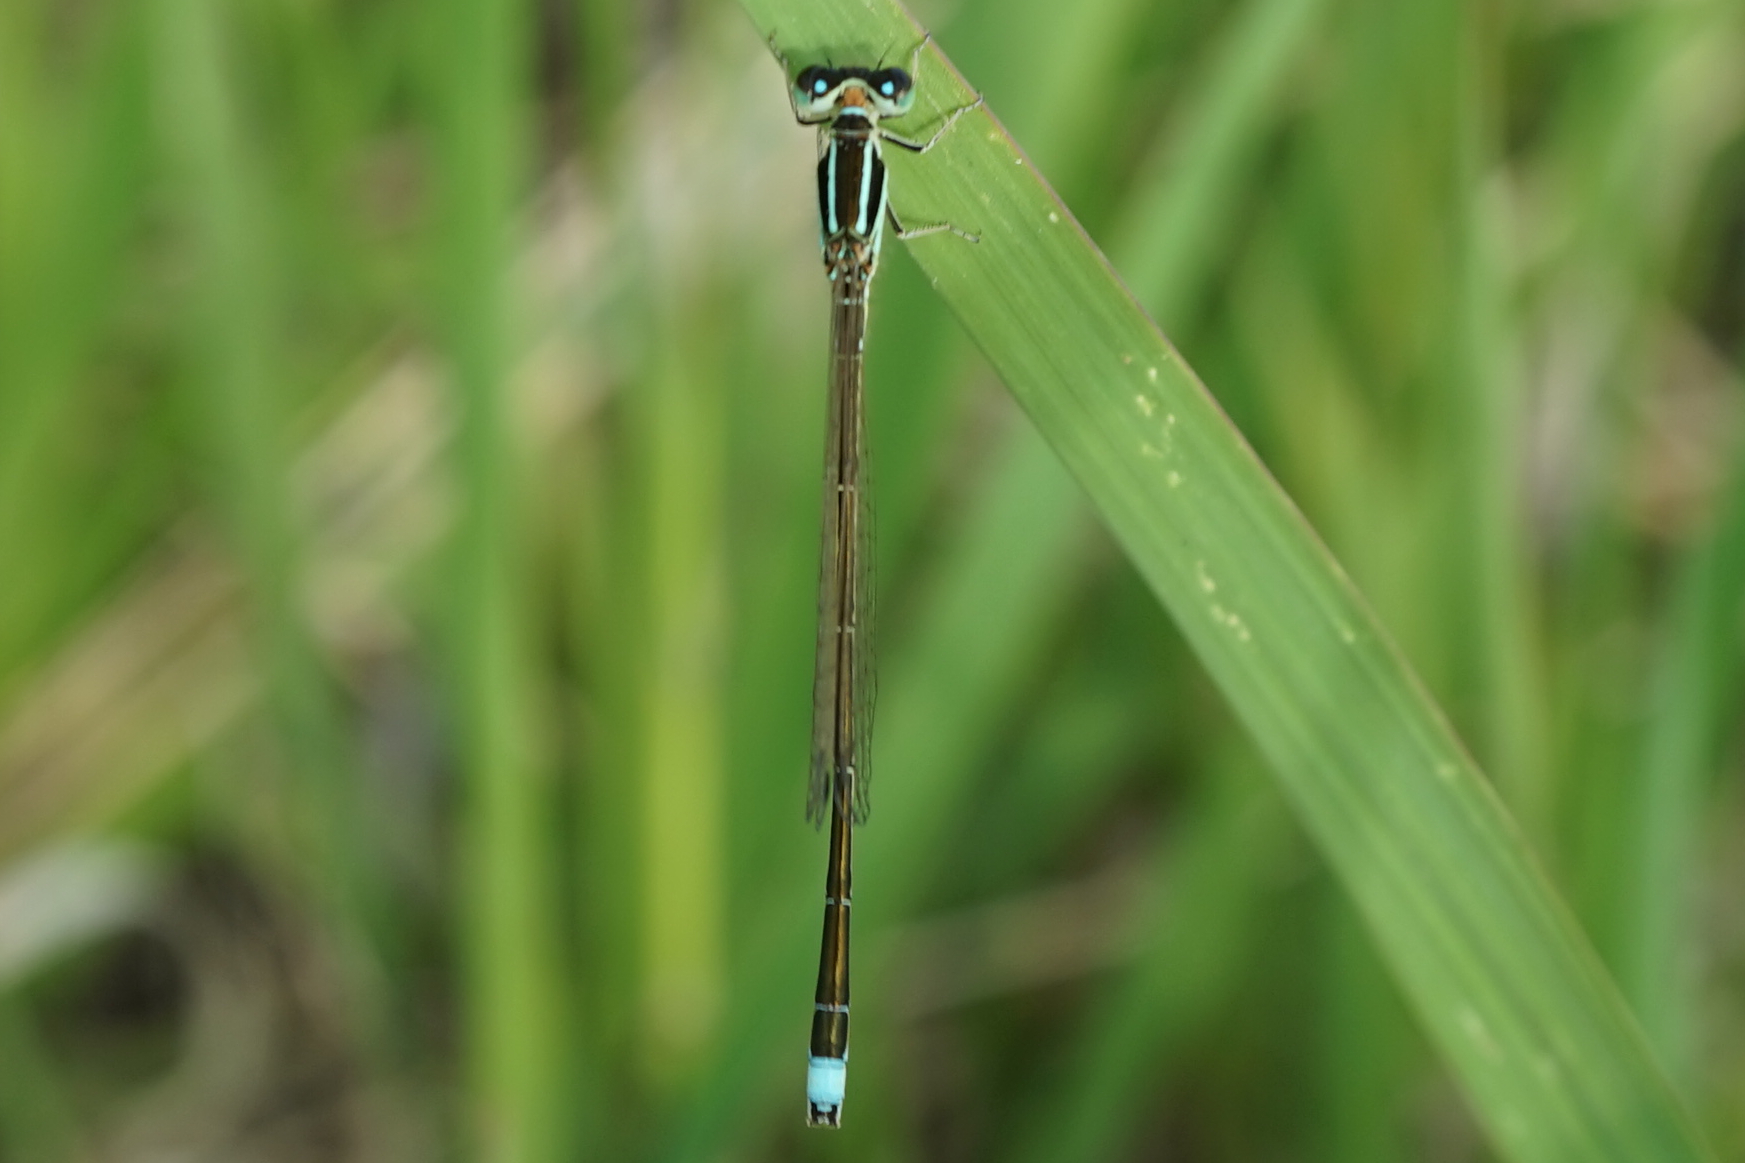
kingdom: Animalia
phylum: Arthropoda
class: Insecta
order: Odonata
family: Coenagrionidae
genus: Ischnura
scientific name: Ischnura asiatica
